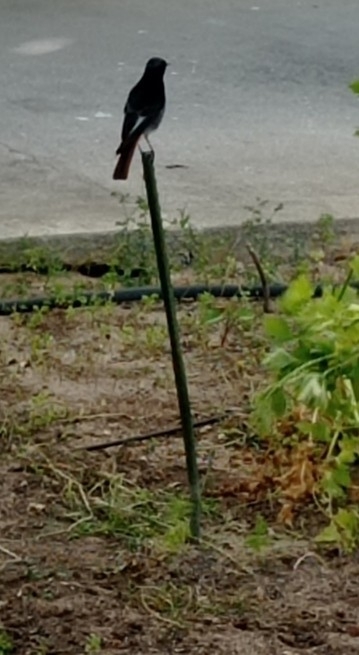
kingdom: Animalia
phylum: Chordata
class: Aves
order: Passeriformes
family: Muscicapidae
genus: Phoenicurus
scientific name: Phoenicurus ochruros
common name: Black redstart
